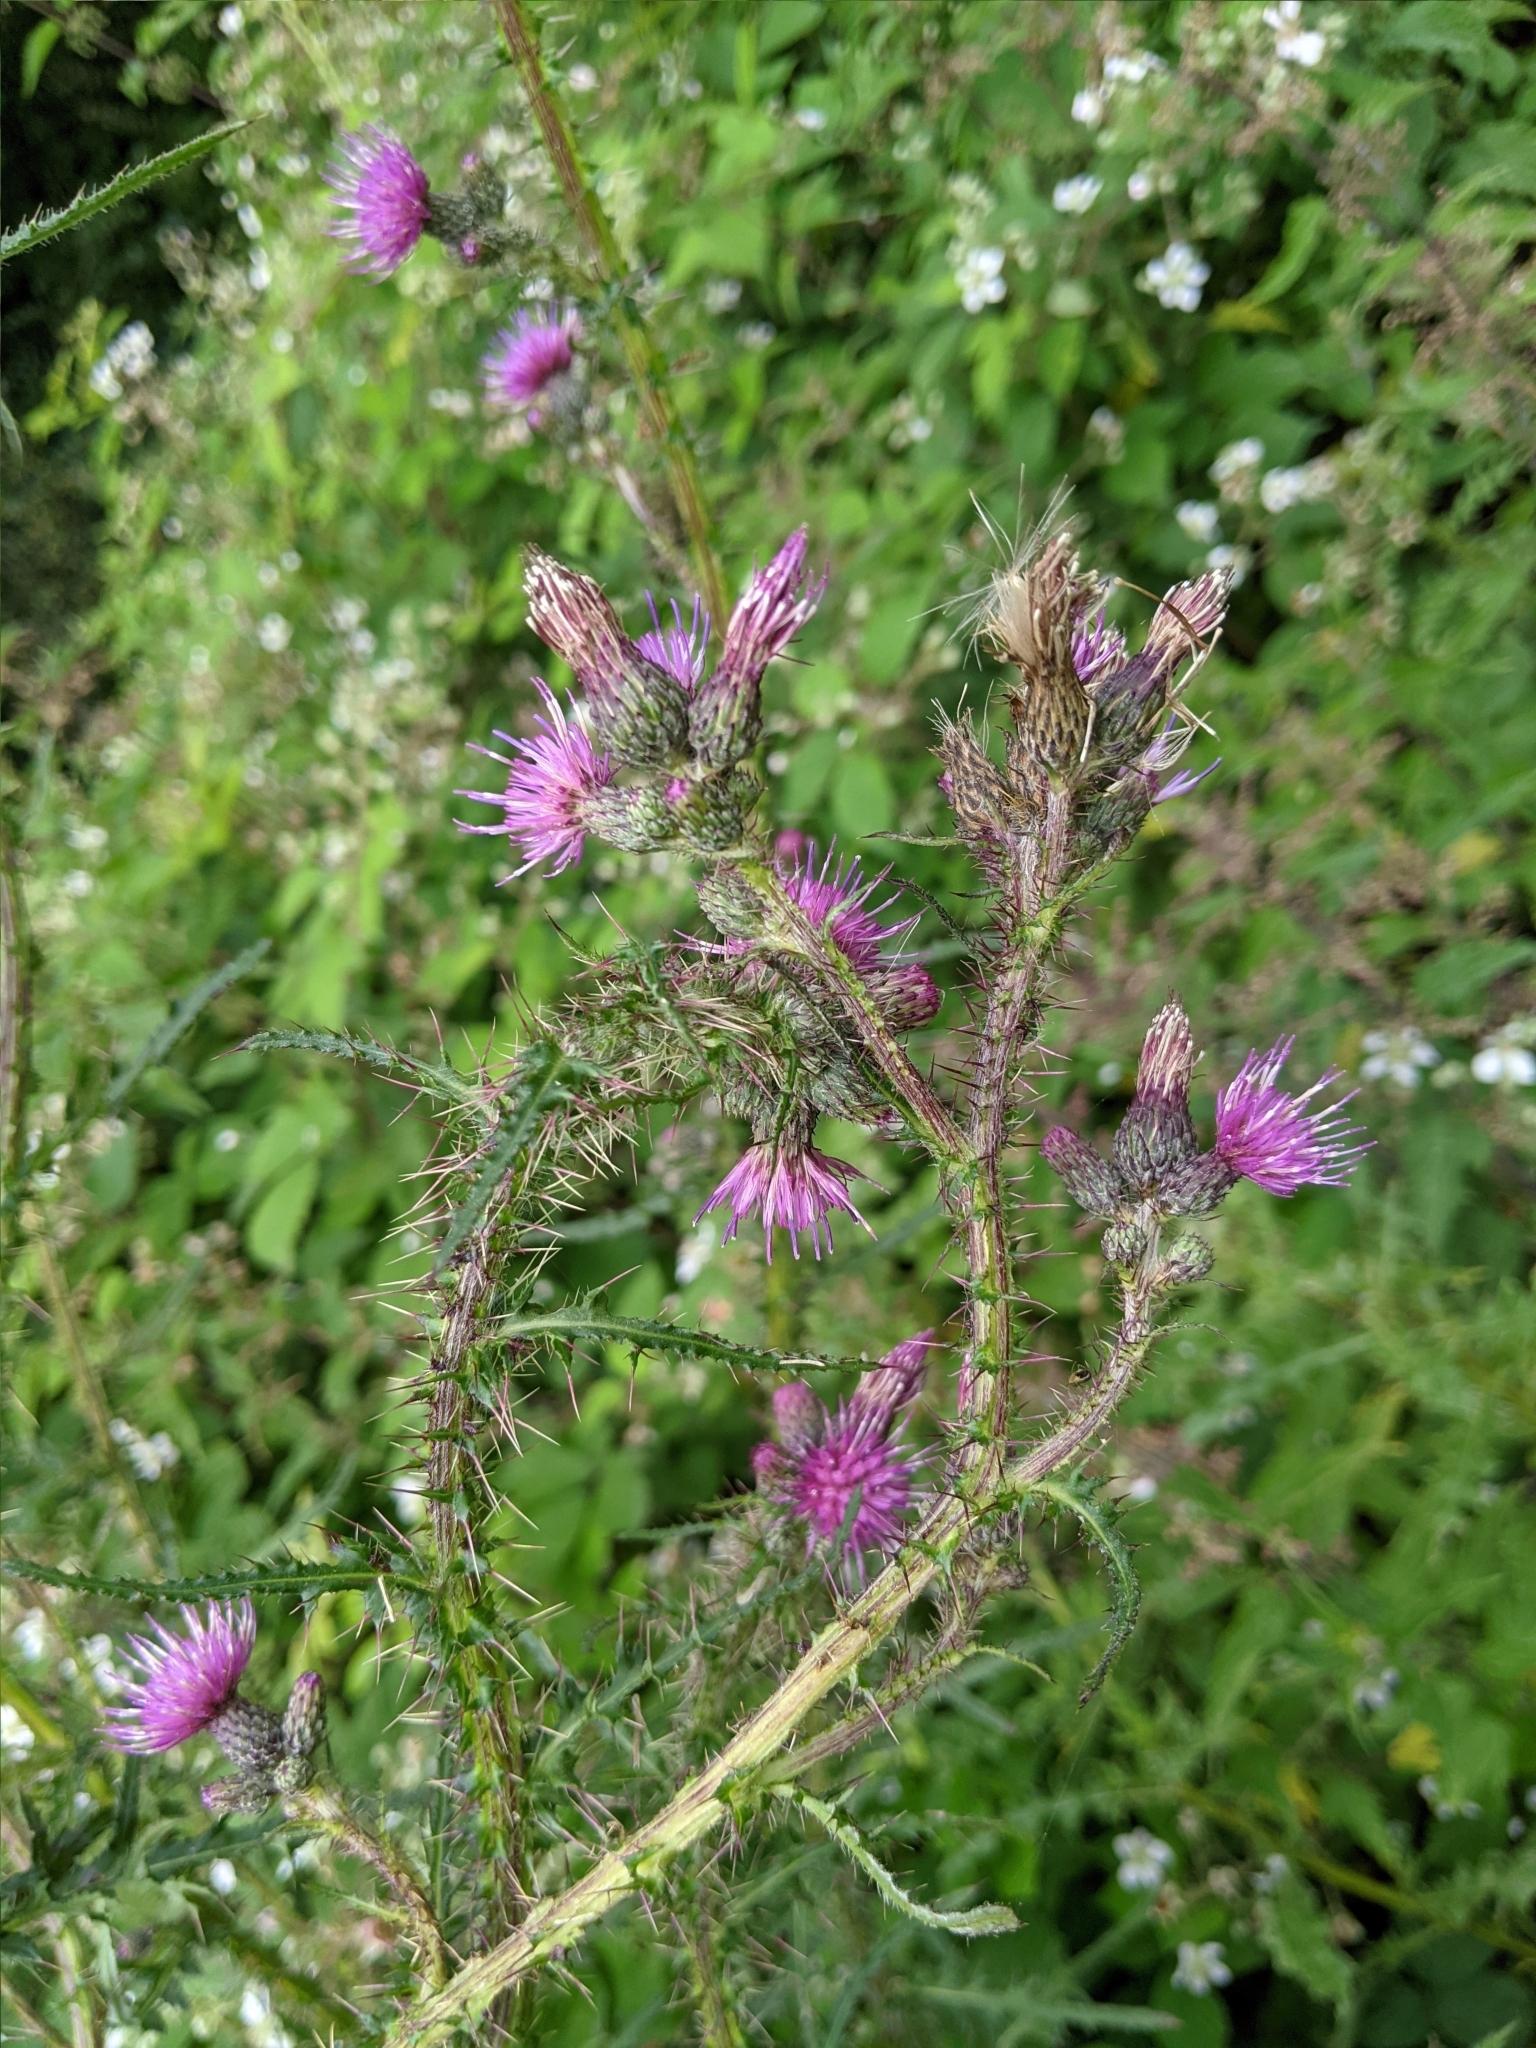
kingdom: Plantae
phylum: Tracheophyta
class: Magnoliopsida
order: Asterales
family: Asteraceae
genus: Cirsium
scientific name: Cirsium palustre
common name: Marsh thistle
